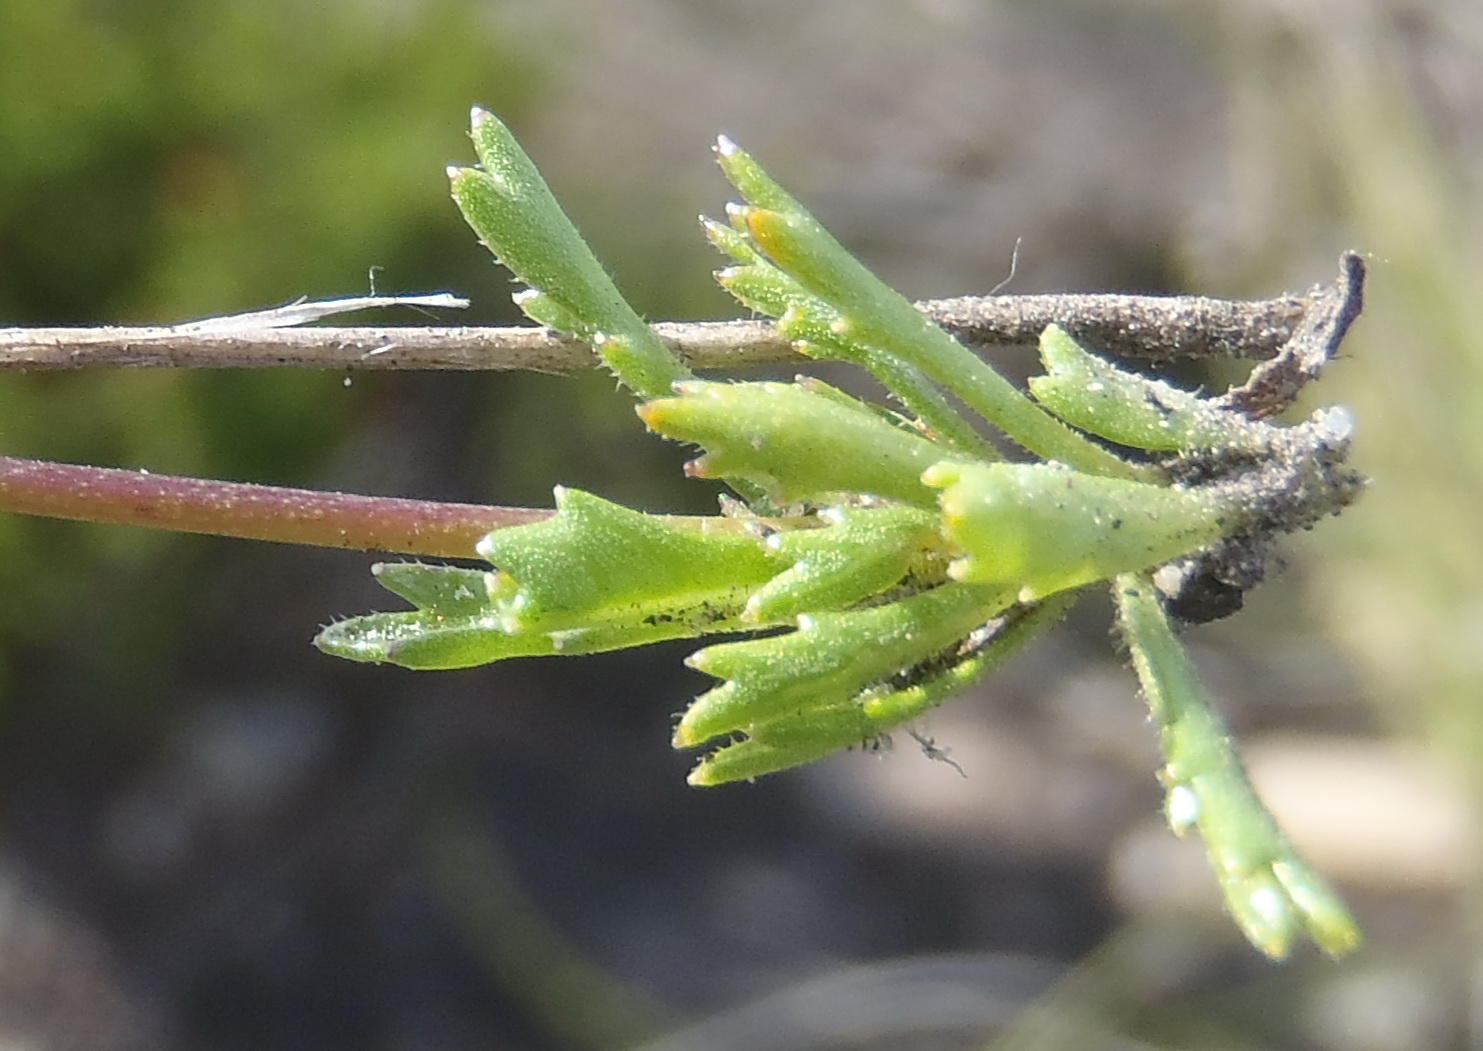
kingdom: Plantae
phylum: Tracheophyta
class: Magnoliopsida
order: Asterales
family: Campanulaceae
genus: Lobelia
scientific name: Lobelia tomentosa
